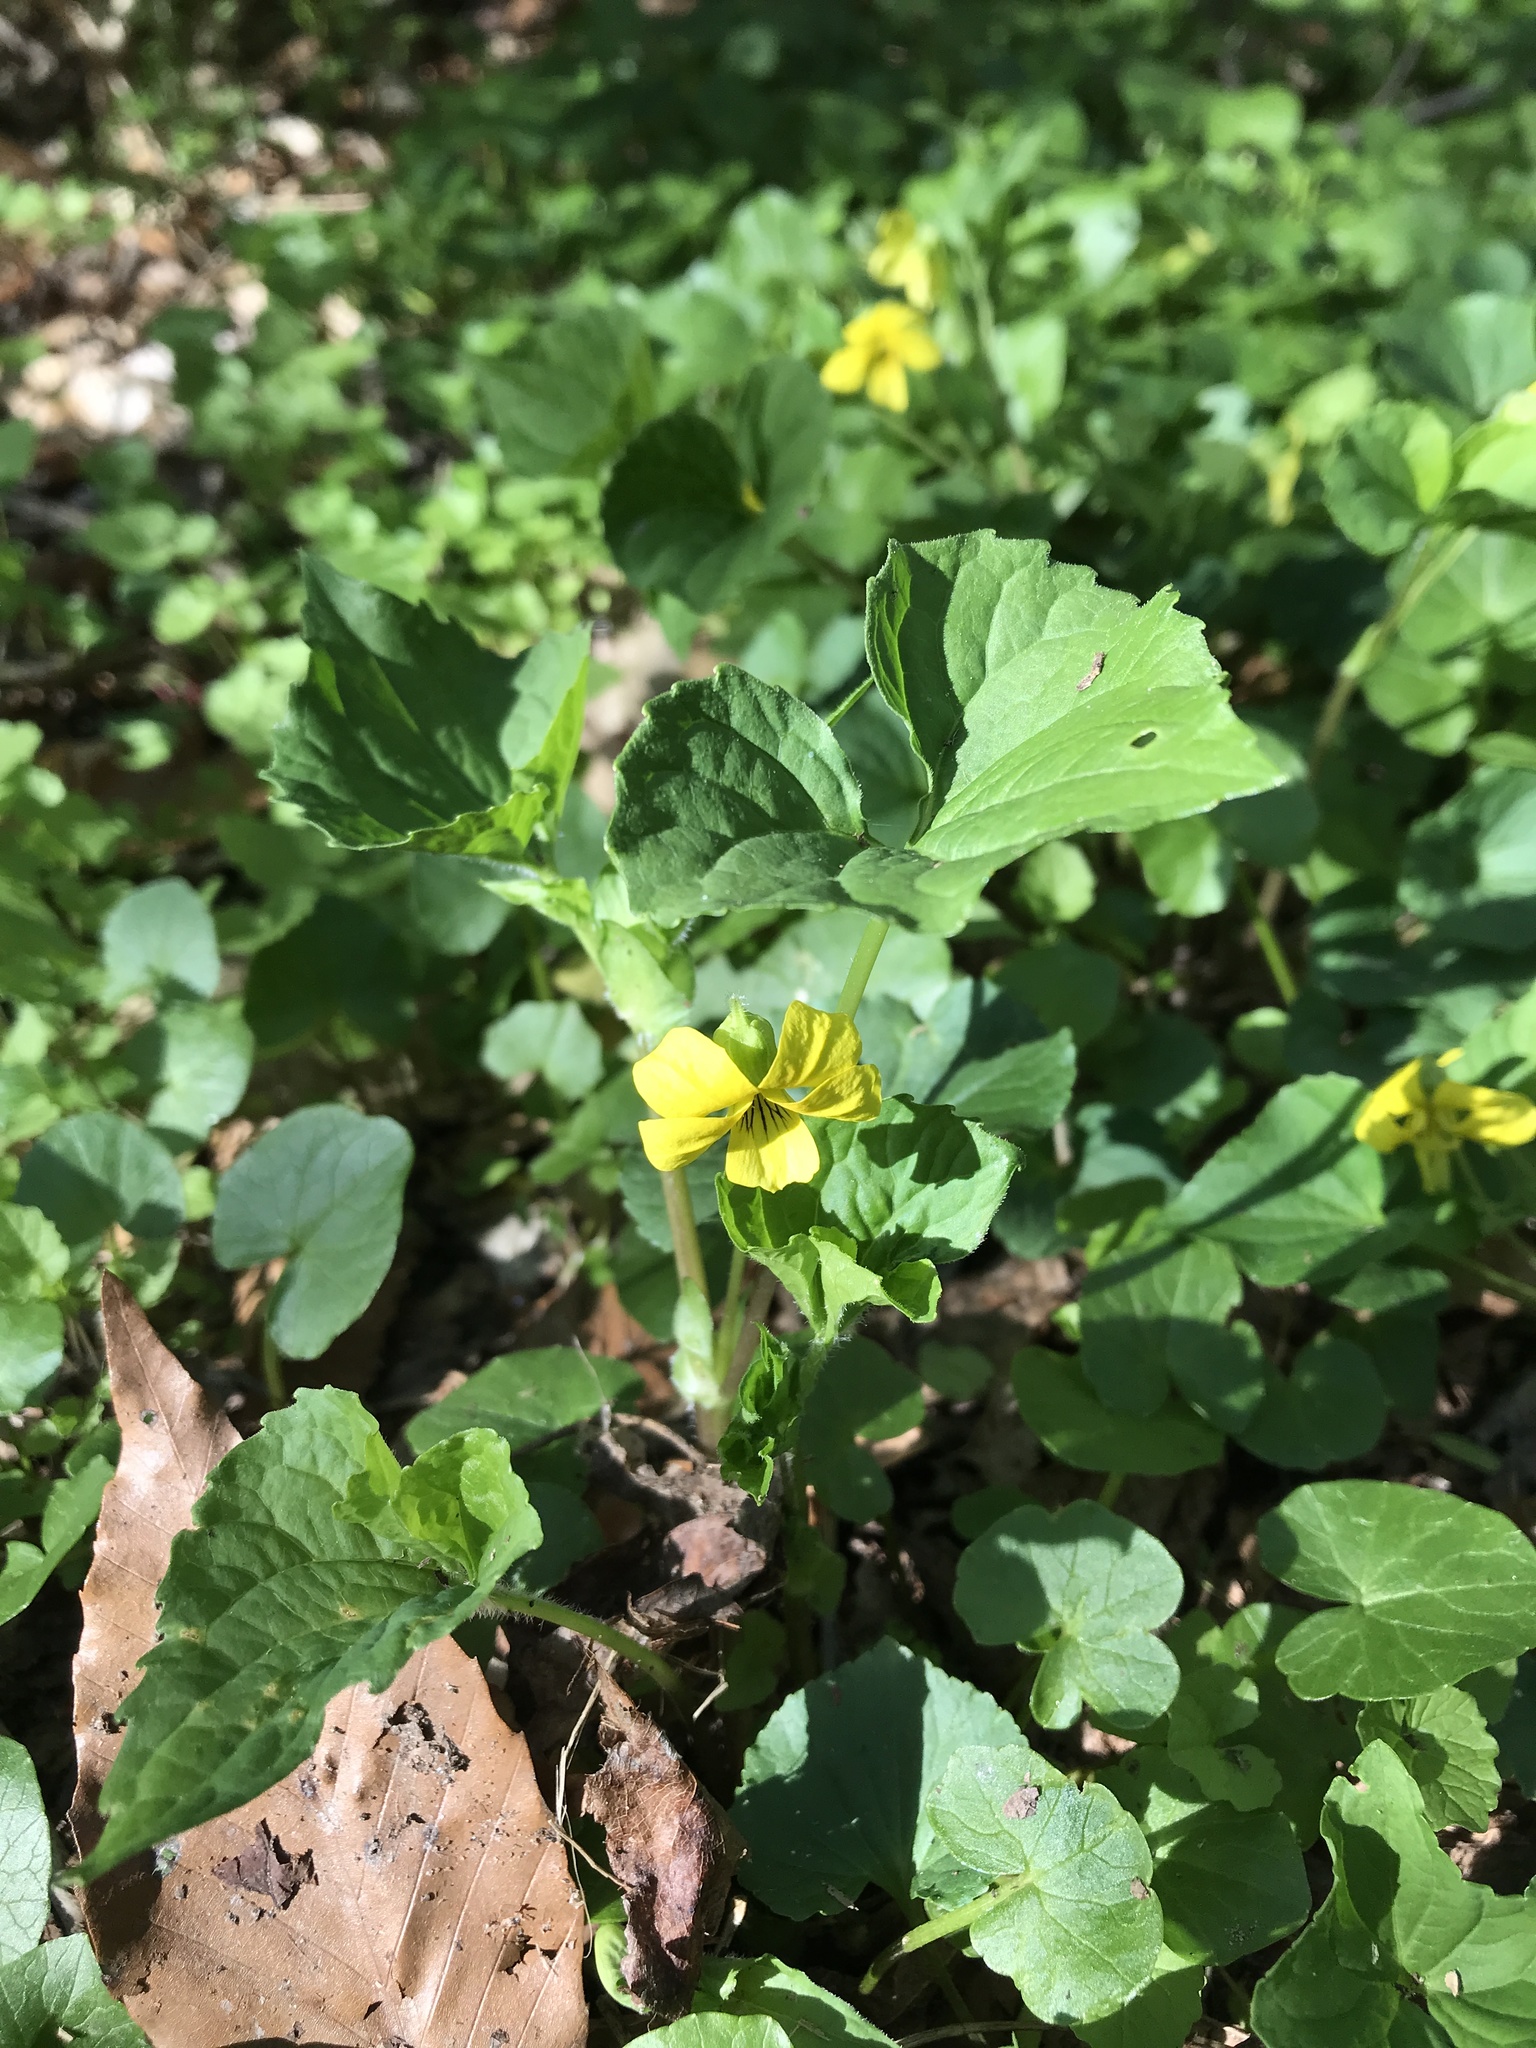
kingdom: Plantae
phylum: Tracheophyta
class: Magnoliopsida
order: Malpighiales
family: Violaceae
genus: Viola
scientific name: Viola eriocarpa
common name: Smooth yellow violet
